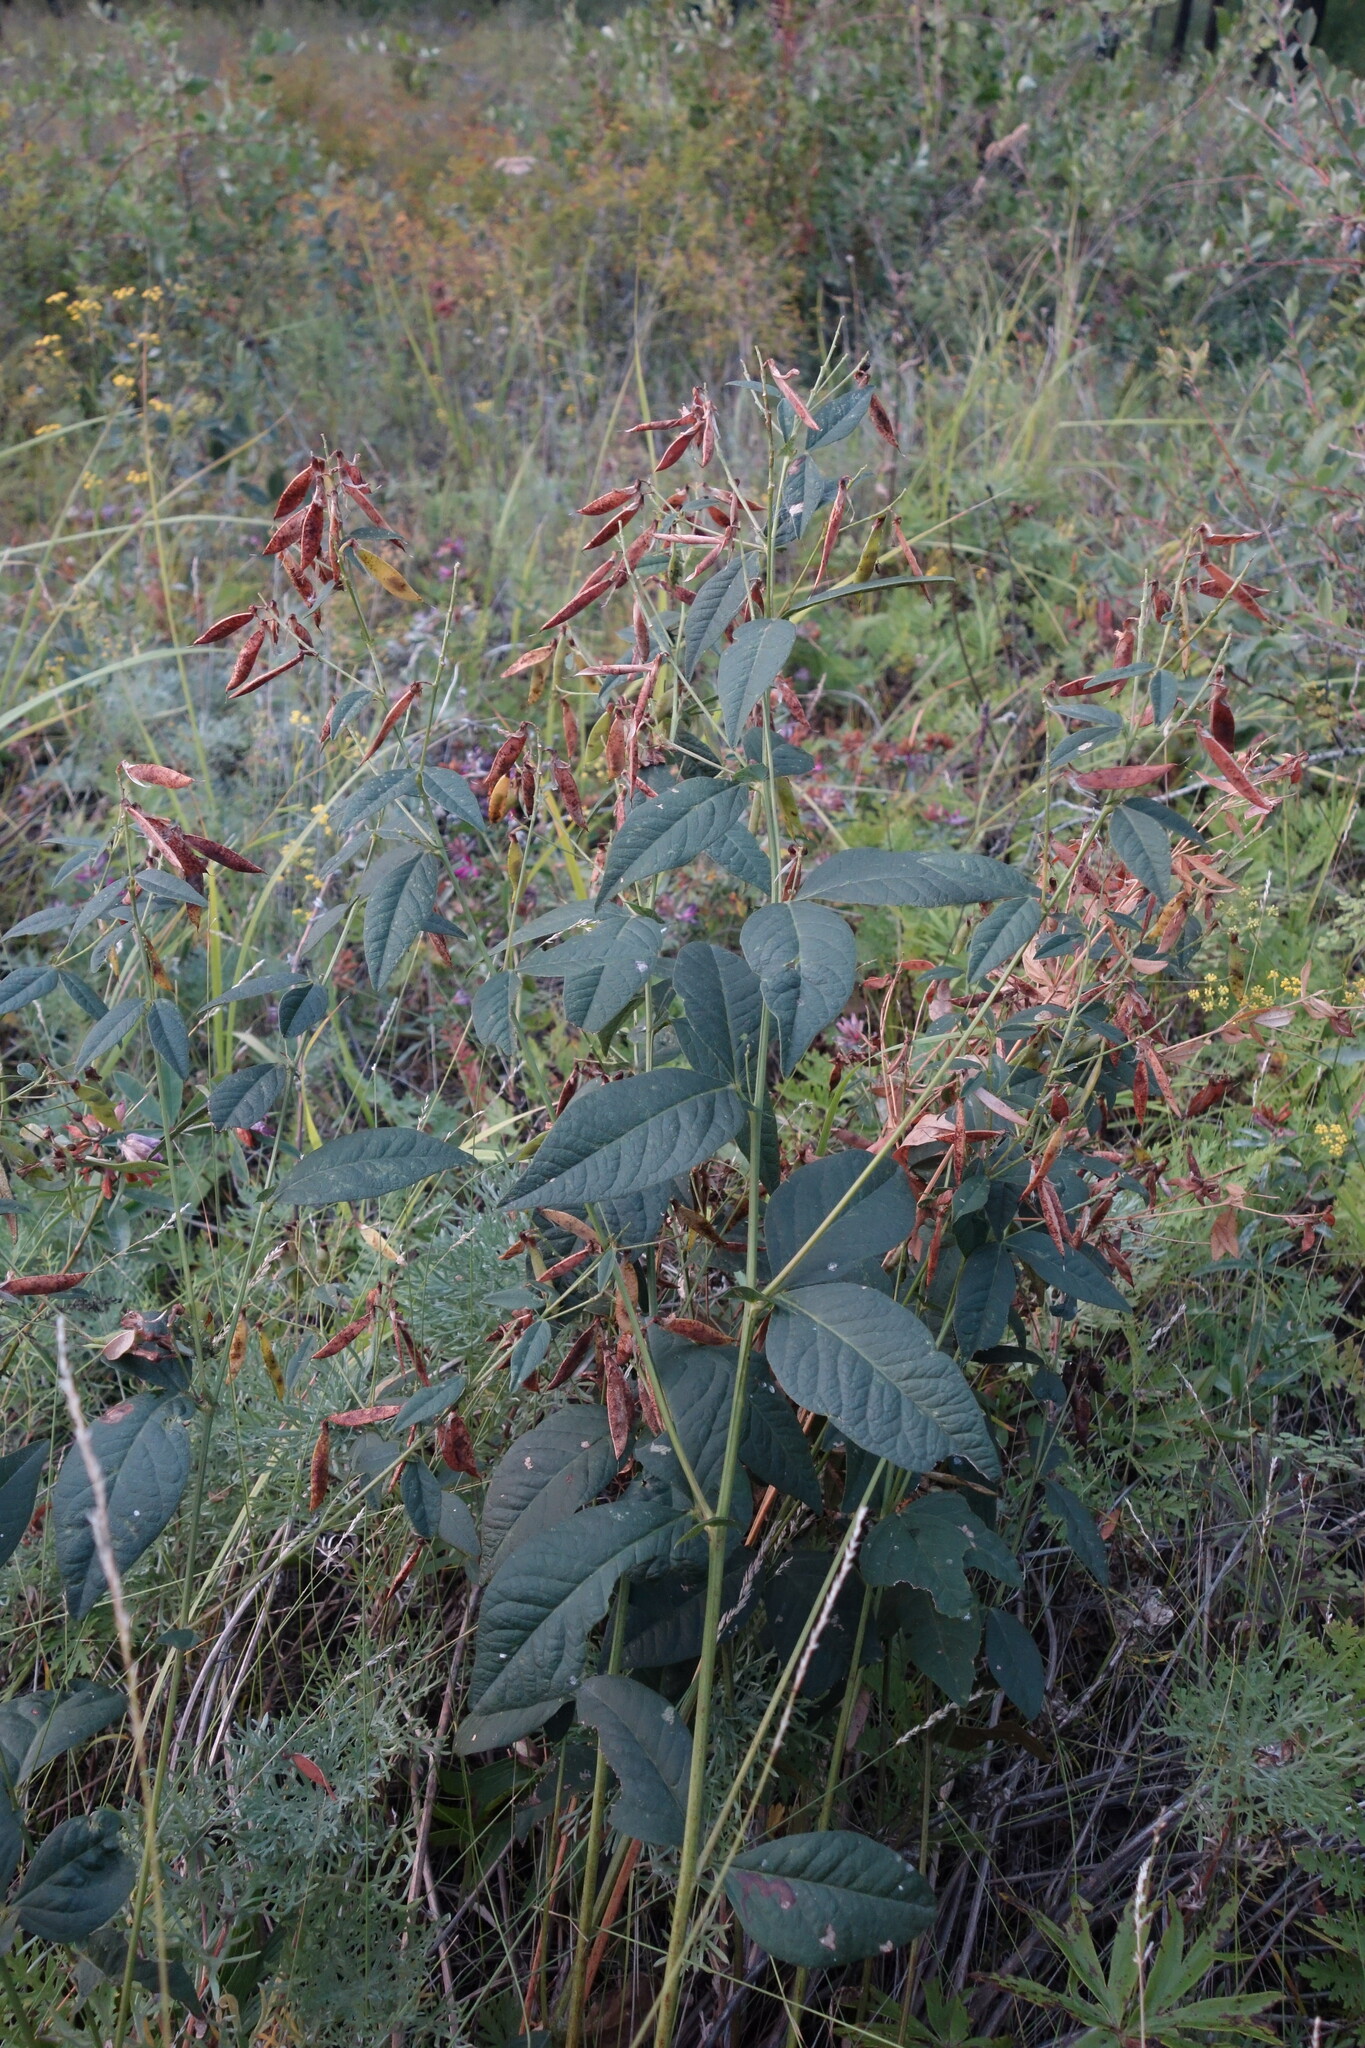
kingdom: Plantae
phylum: Tracheophyta
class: Magnoliopsida
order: Fabales
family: Fabaceae
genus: Vicia
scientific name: Vicia unijuga
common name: Two-leaf vetch
